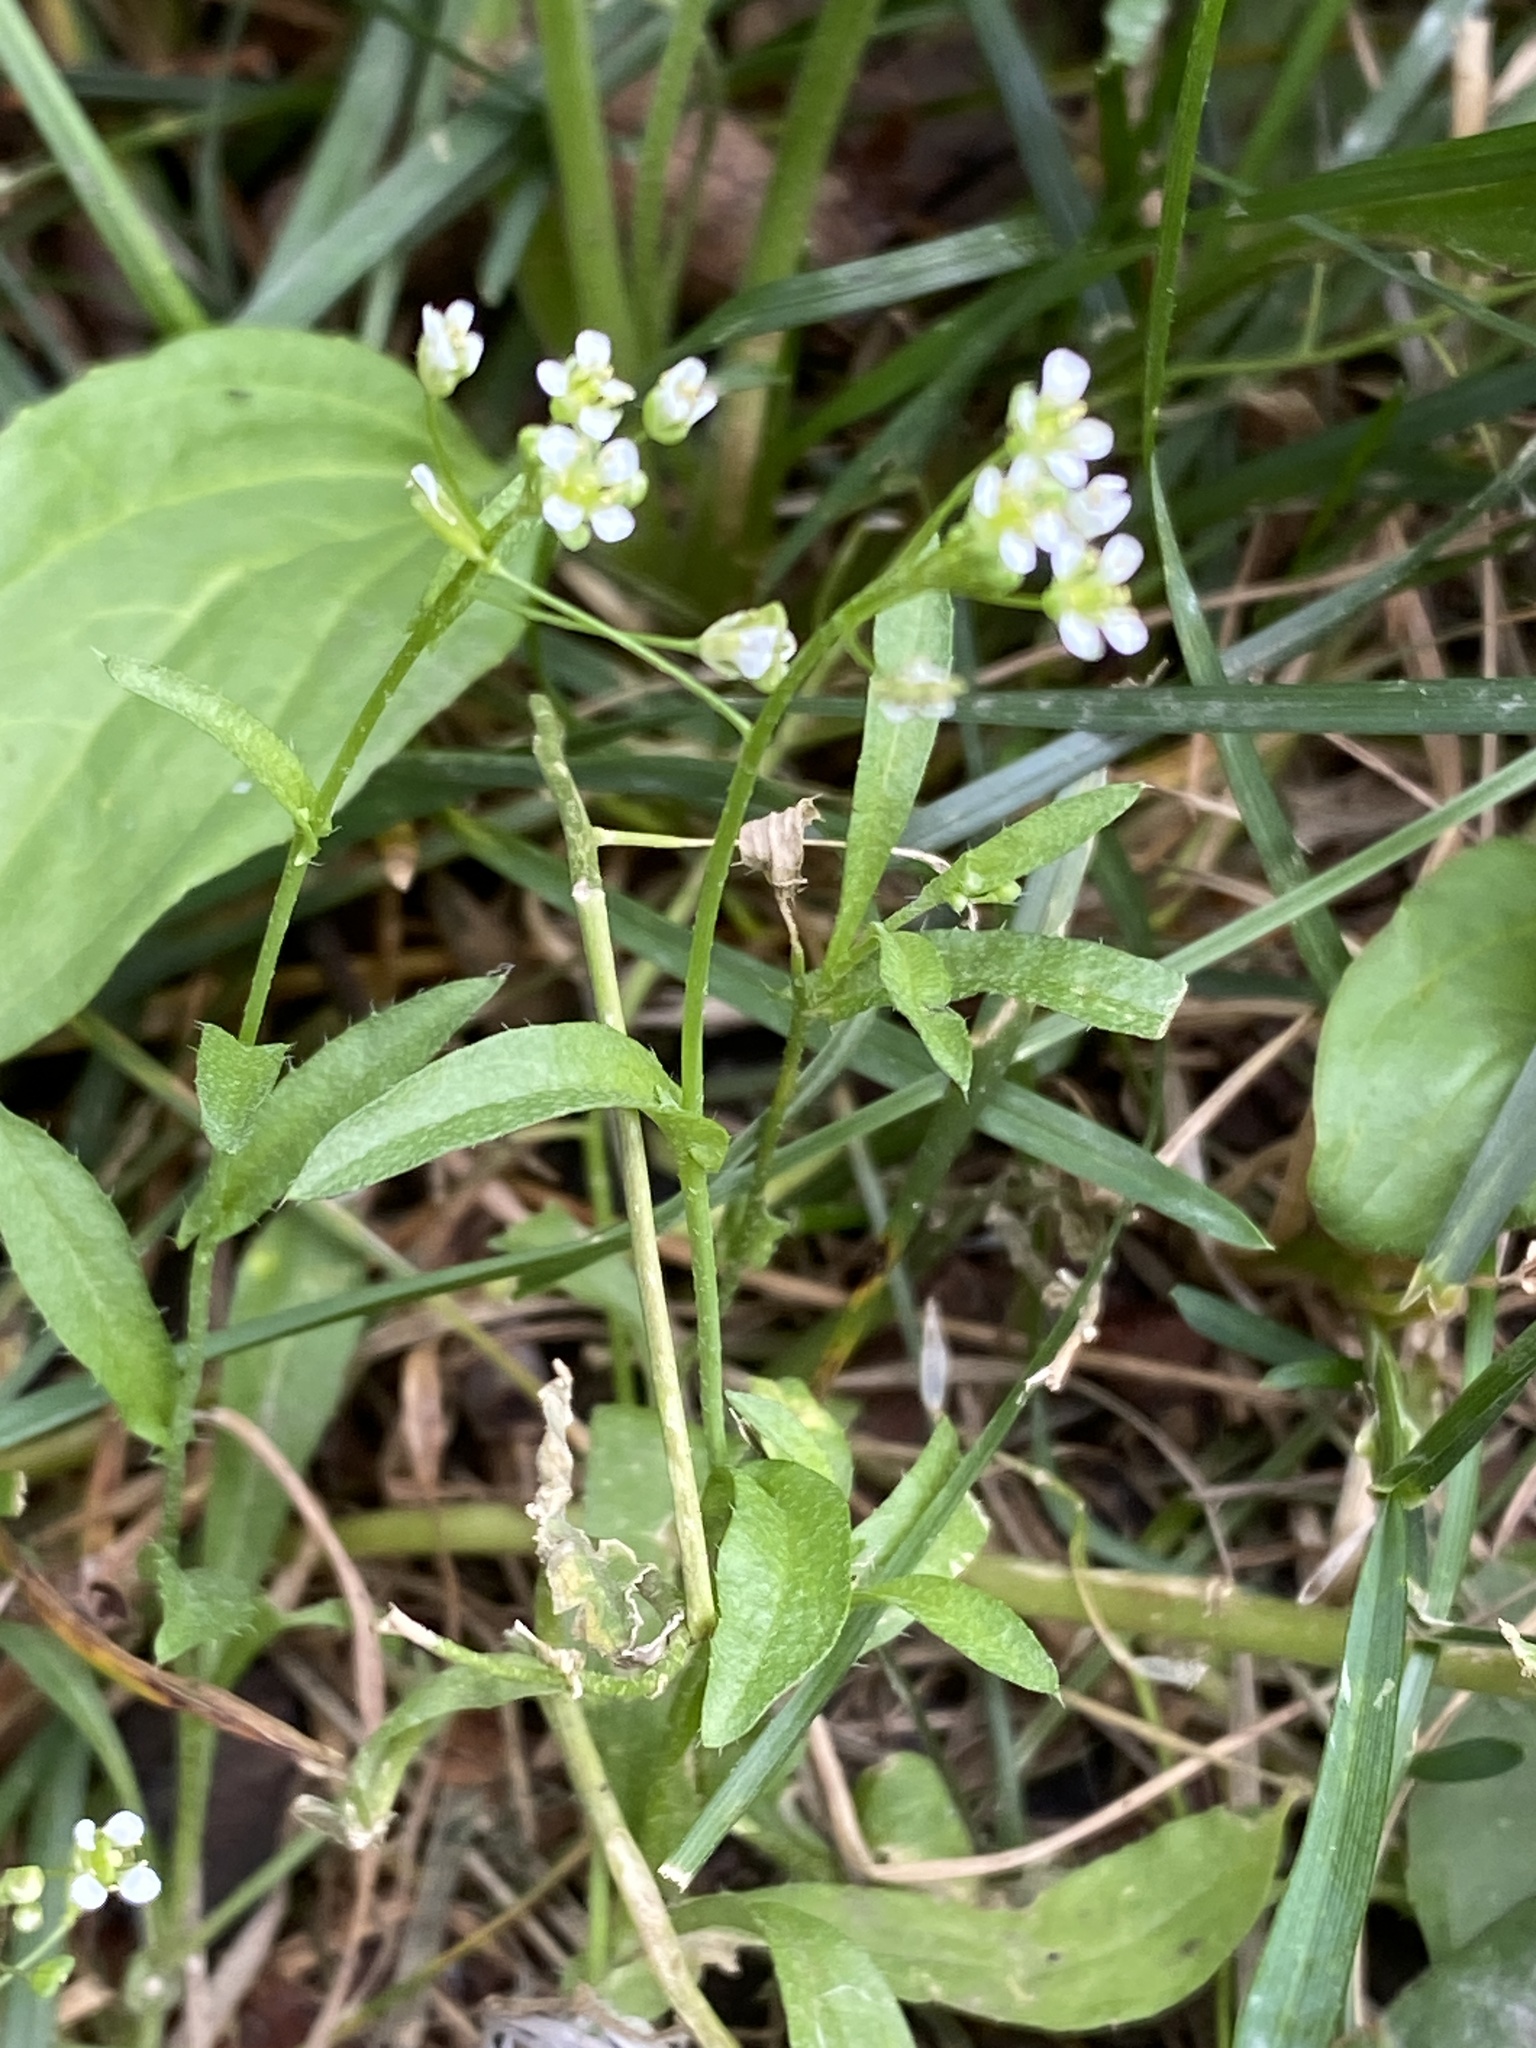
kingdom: Plantae
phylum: Tracheophyta
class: Magnoliopsida
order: Brassicales
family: Brassicaceae
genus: Capsella
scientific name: Capsella bursa-pastoris
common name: Shepherd's purse
